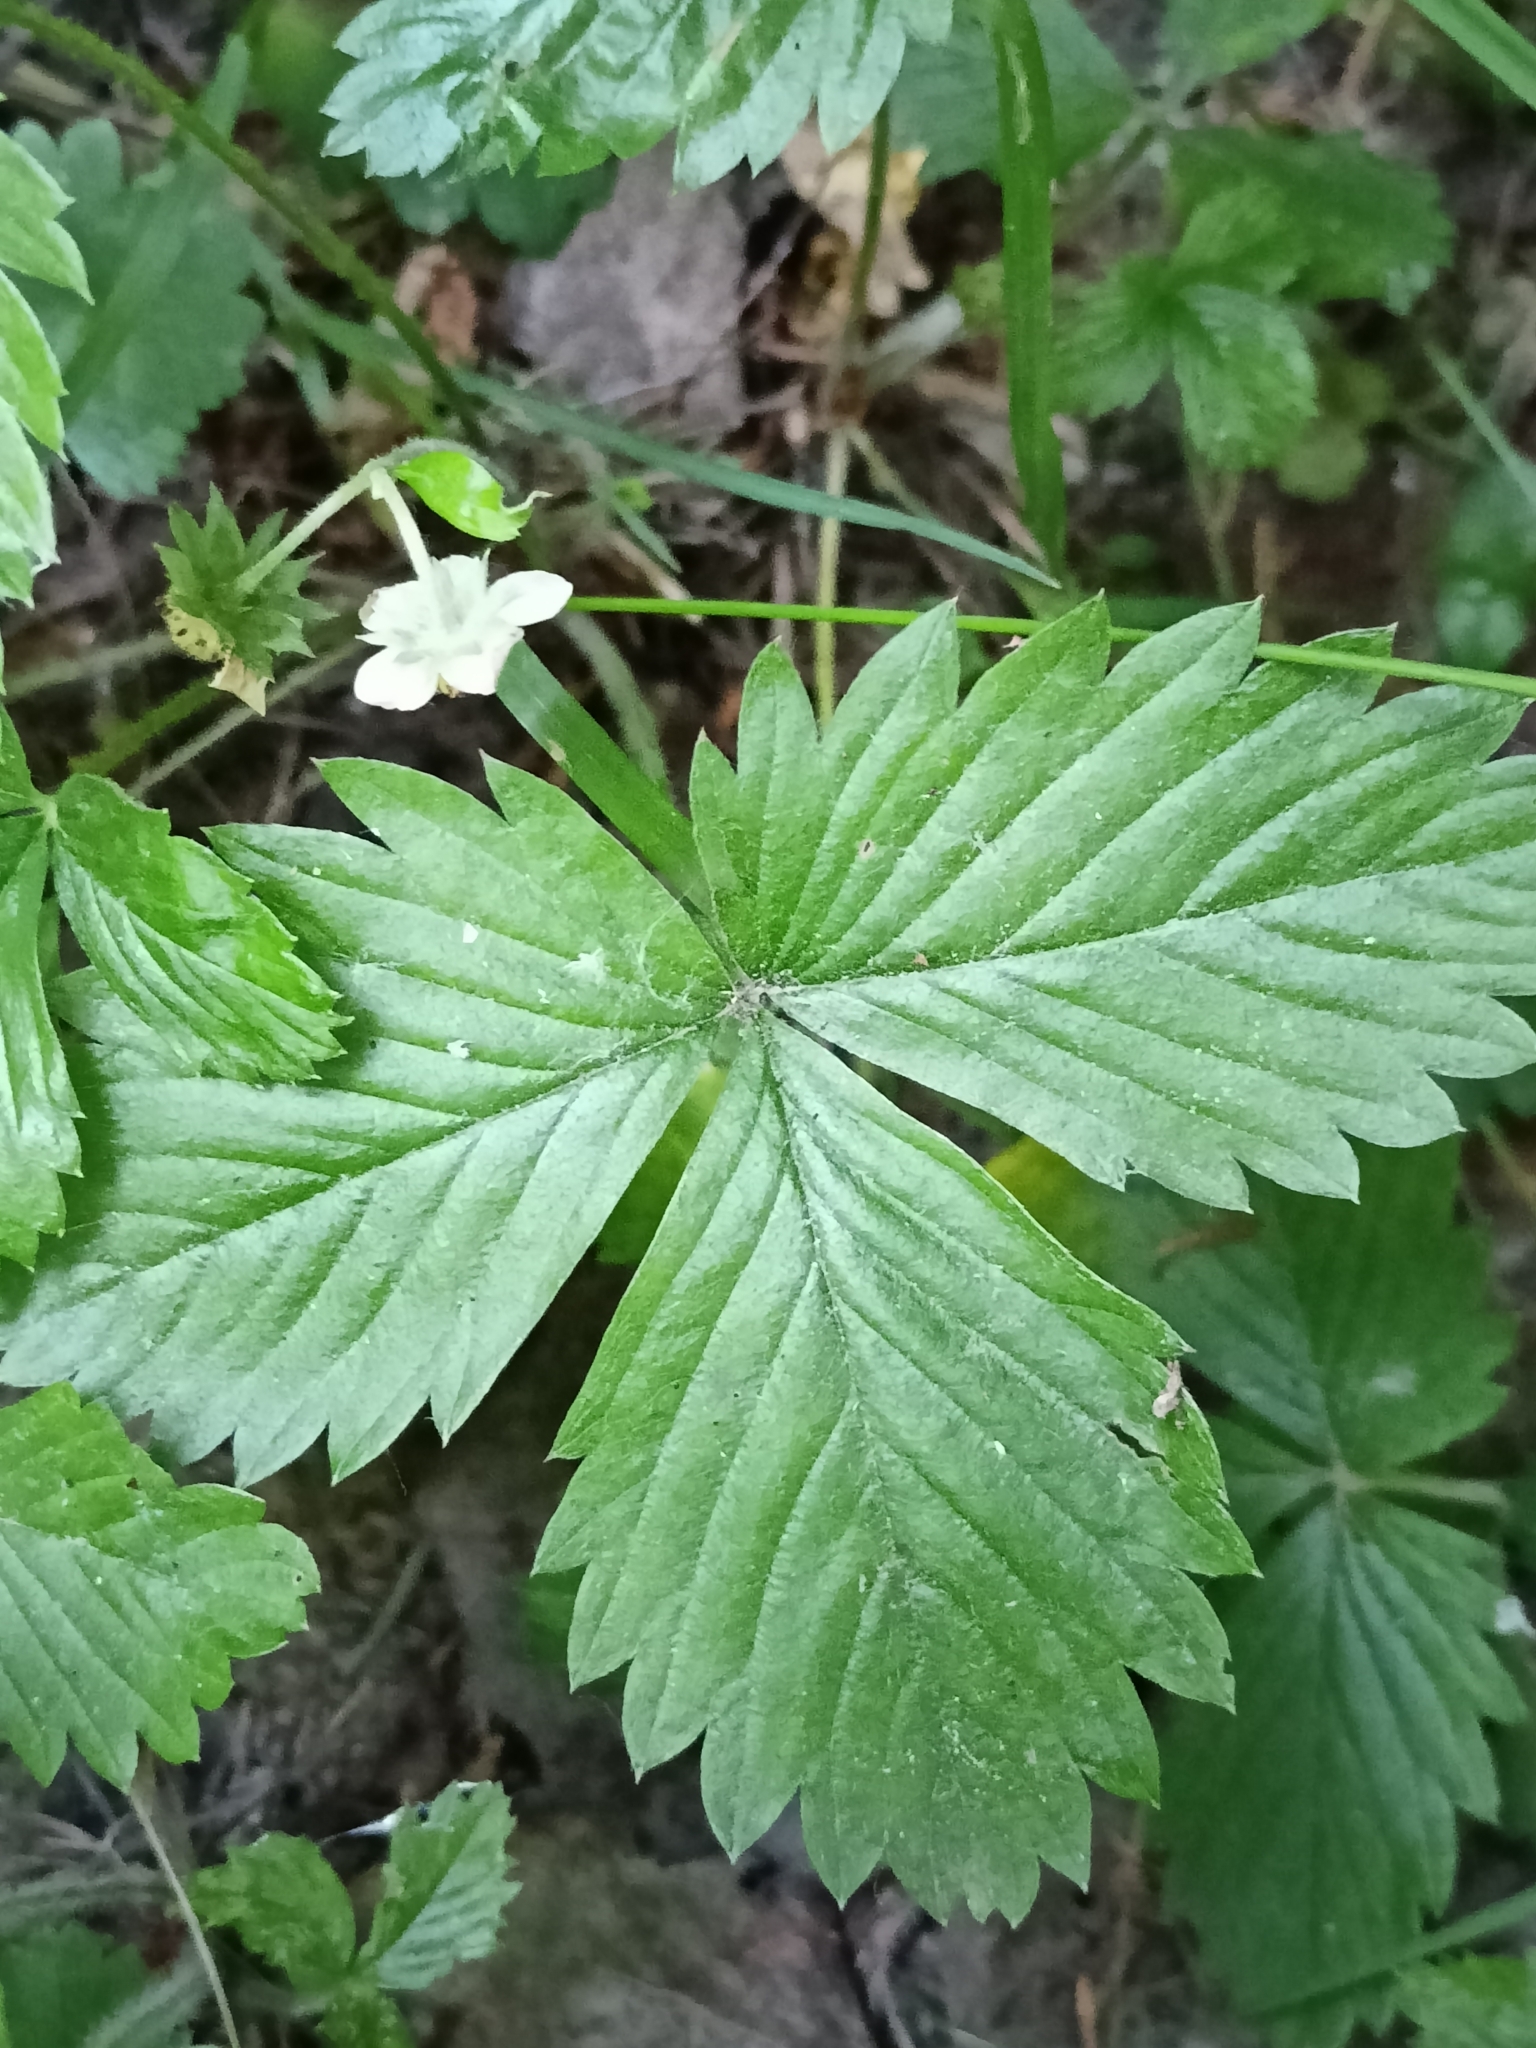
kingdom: Plantae
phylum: Tracheophyta
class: Magnoliopsida
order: Rosales
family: Rosaceae
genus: Fragaria
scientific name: Fragaria vesca
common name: Wild strawberry
